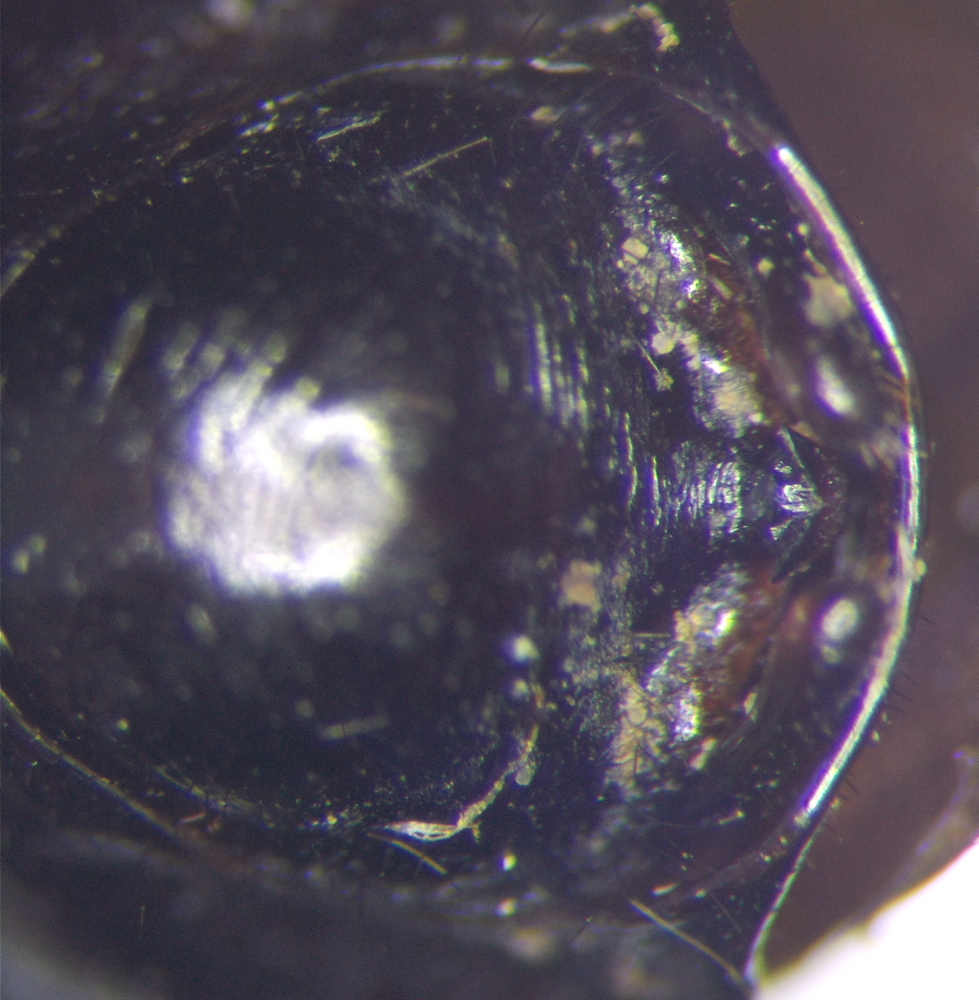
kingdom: Animalia
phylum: Arthropoda
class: Insecta
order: Hemiptera
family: Reduviidae
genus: Rhynocoris
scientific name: Rhynocoris ibericus
